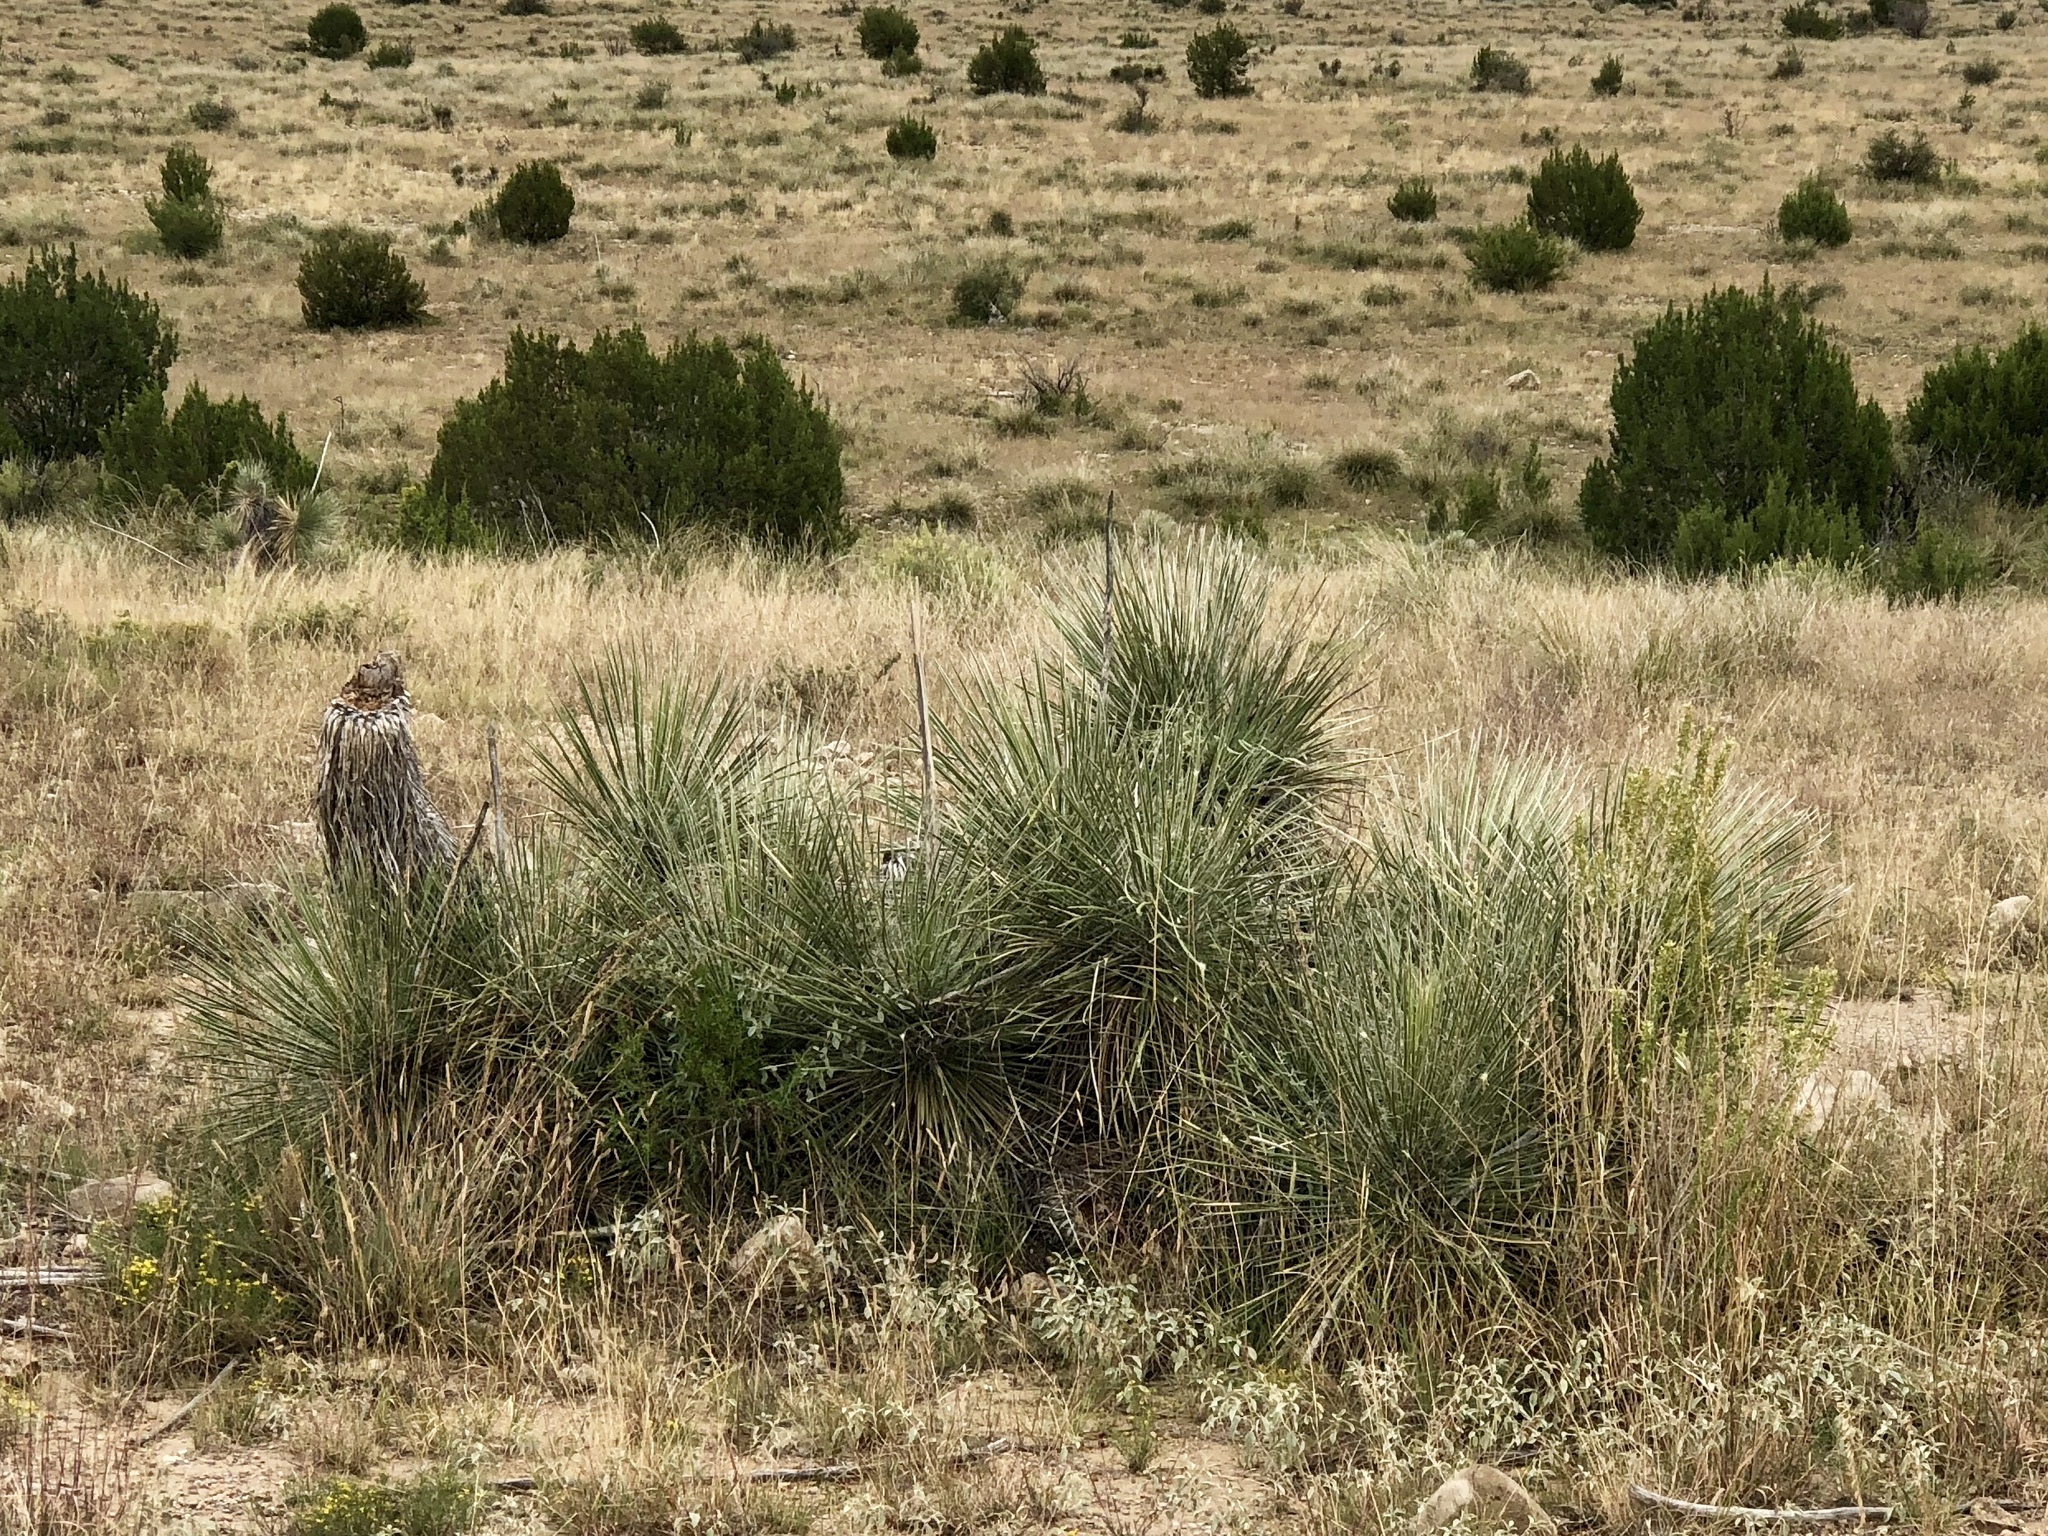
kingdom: Plantae
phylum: Tracheophyta
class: Liliopsida
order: Asparagales
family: Asparagaceae
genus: Yucca
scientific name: Yucca elata
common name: Palmella
